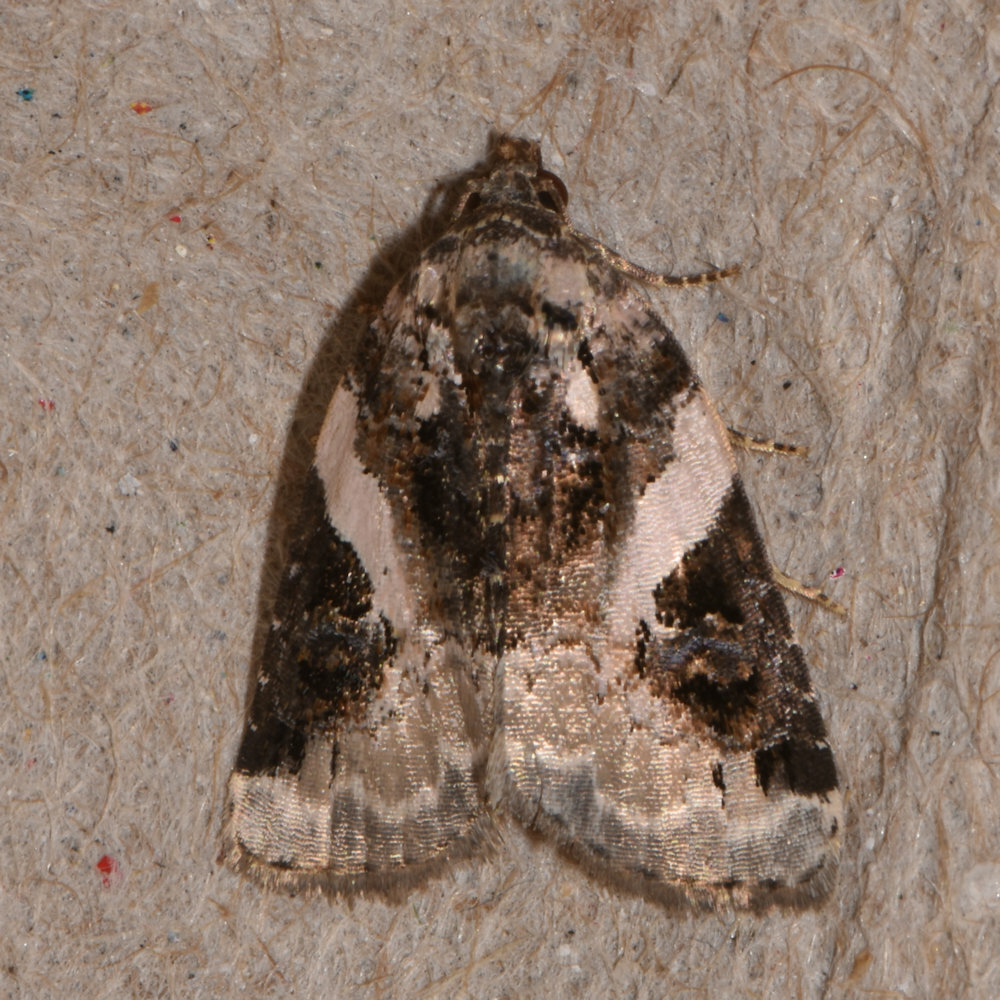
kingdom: Animalia
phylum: Arthropoda
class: Insecta
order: Lepidoptera
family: Noctuidae
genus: Pseudeustrotia
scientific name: Pseudeustrotia carneola
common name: Pink-barred lithacodia moth
